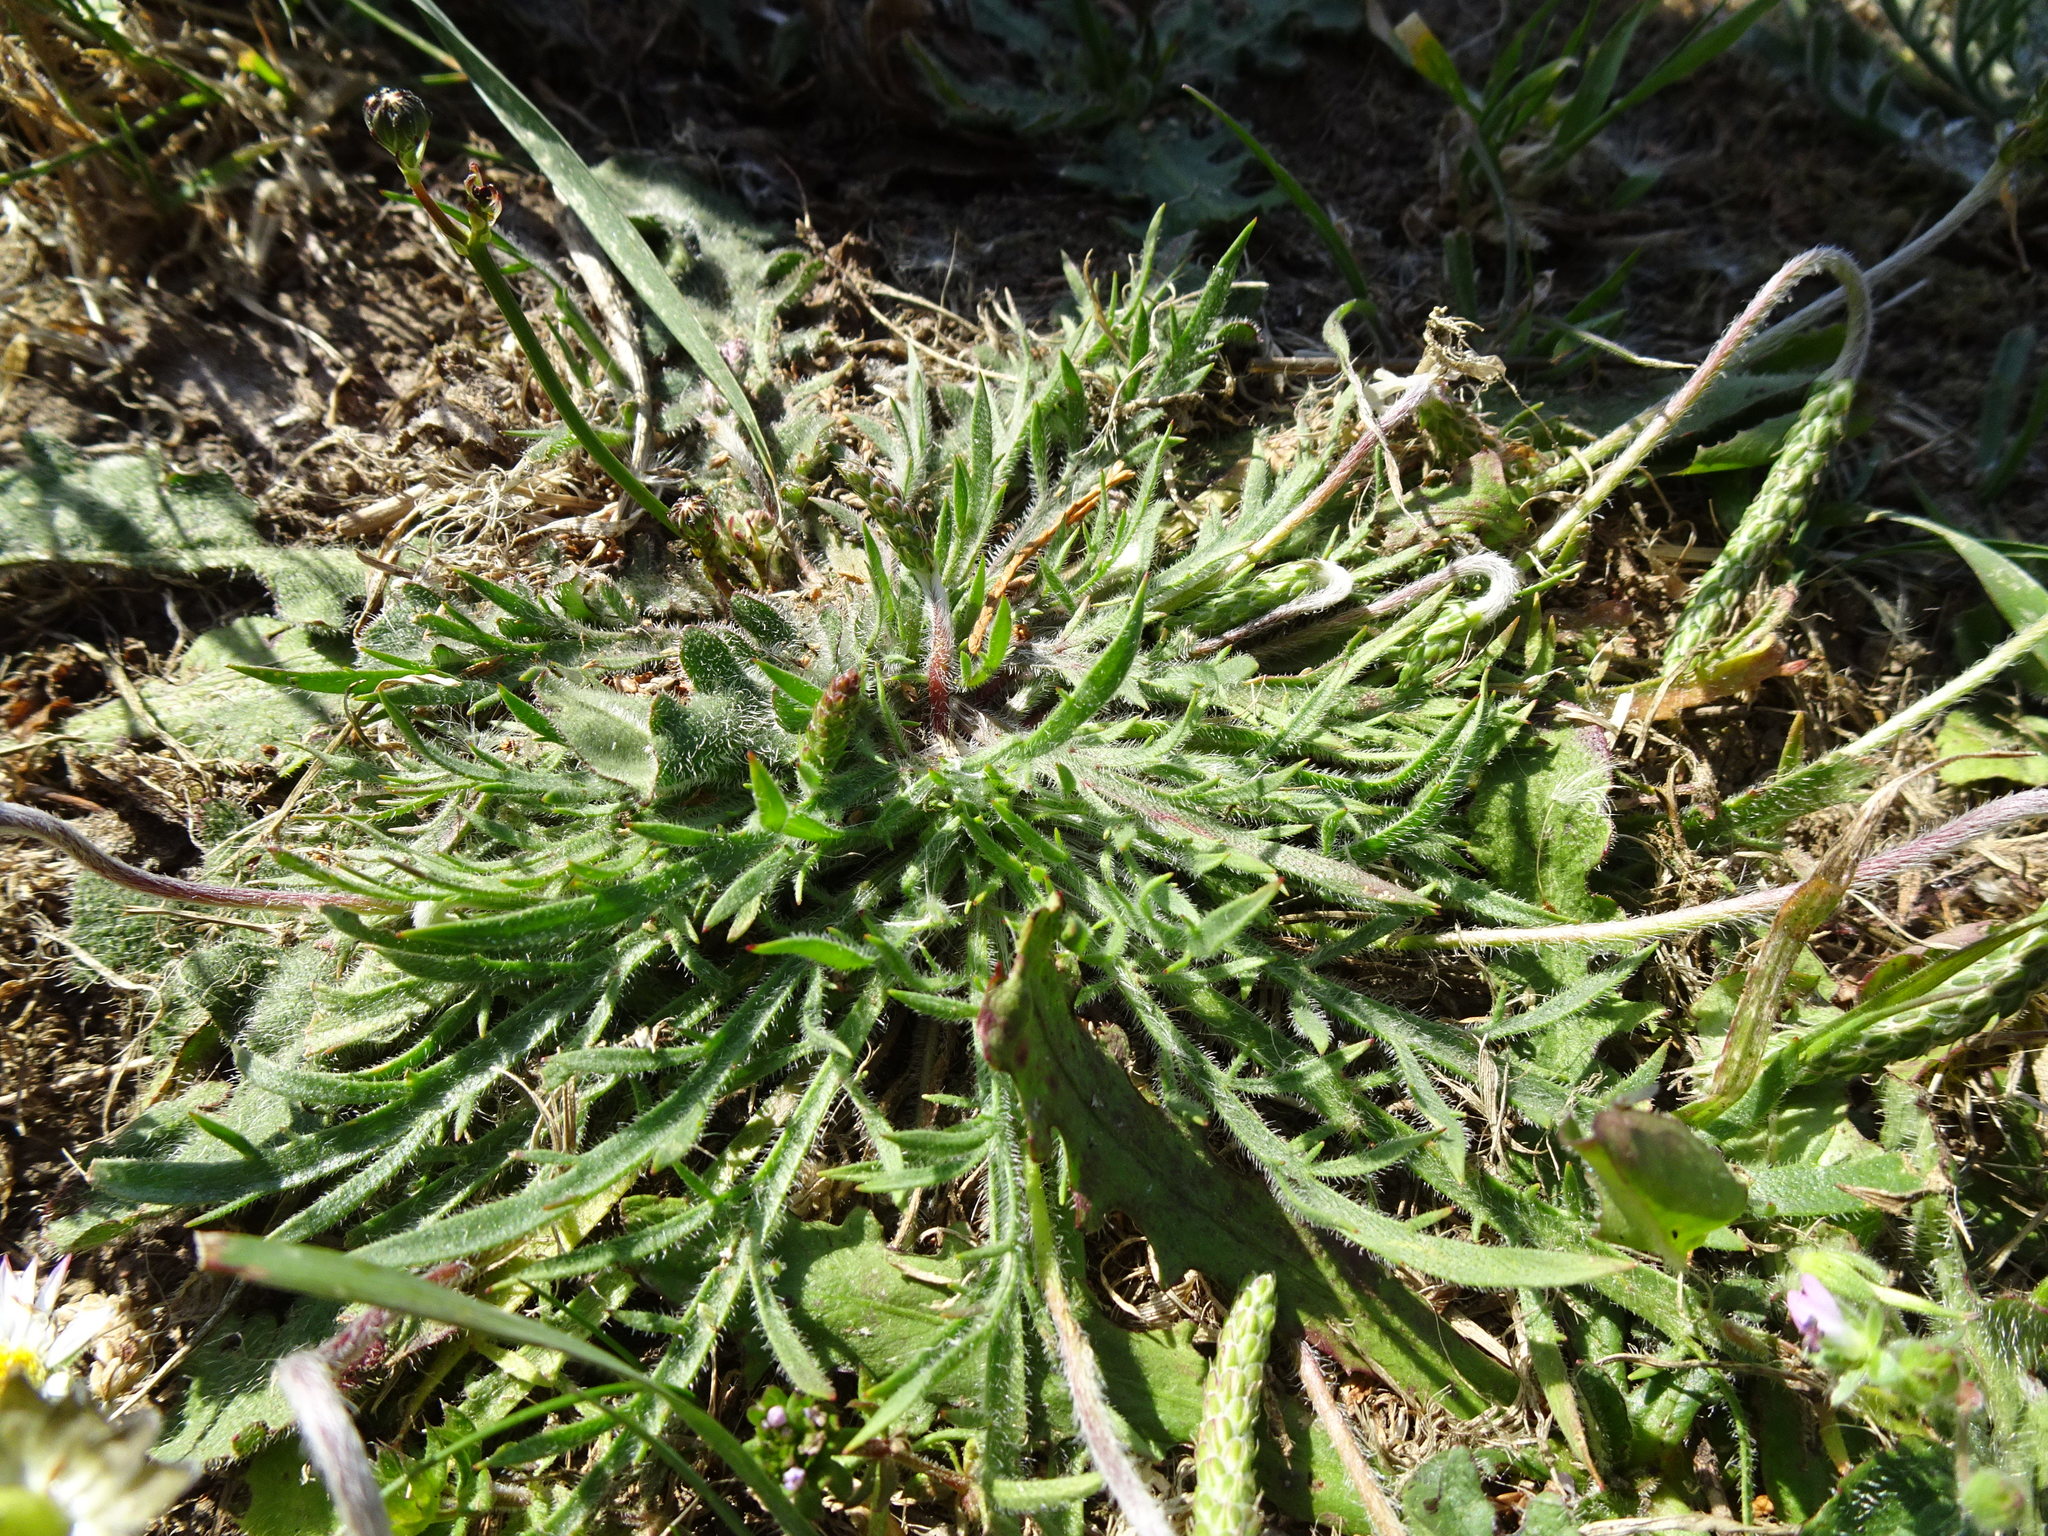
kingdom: Plantae
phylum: Tracheophyta
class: Magnoliopsida
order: Lamiales
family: Plantaginaceae
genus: Plantago
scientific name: Plantago coronopus
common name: Buck's-horn plantain
